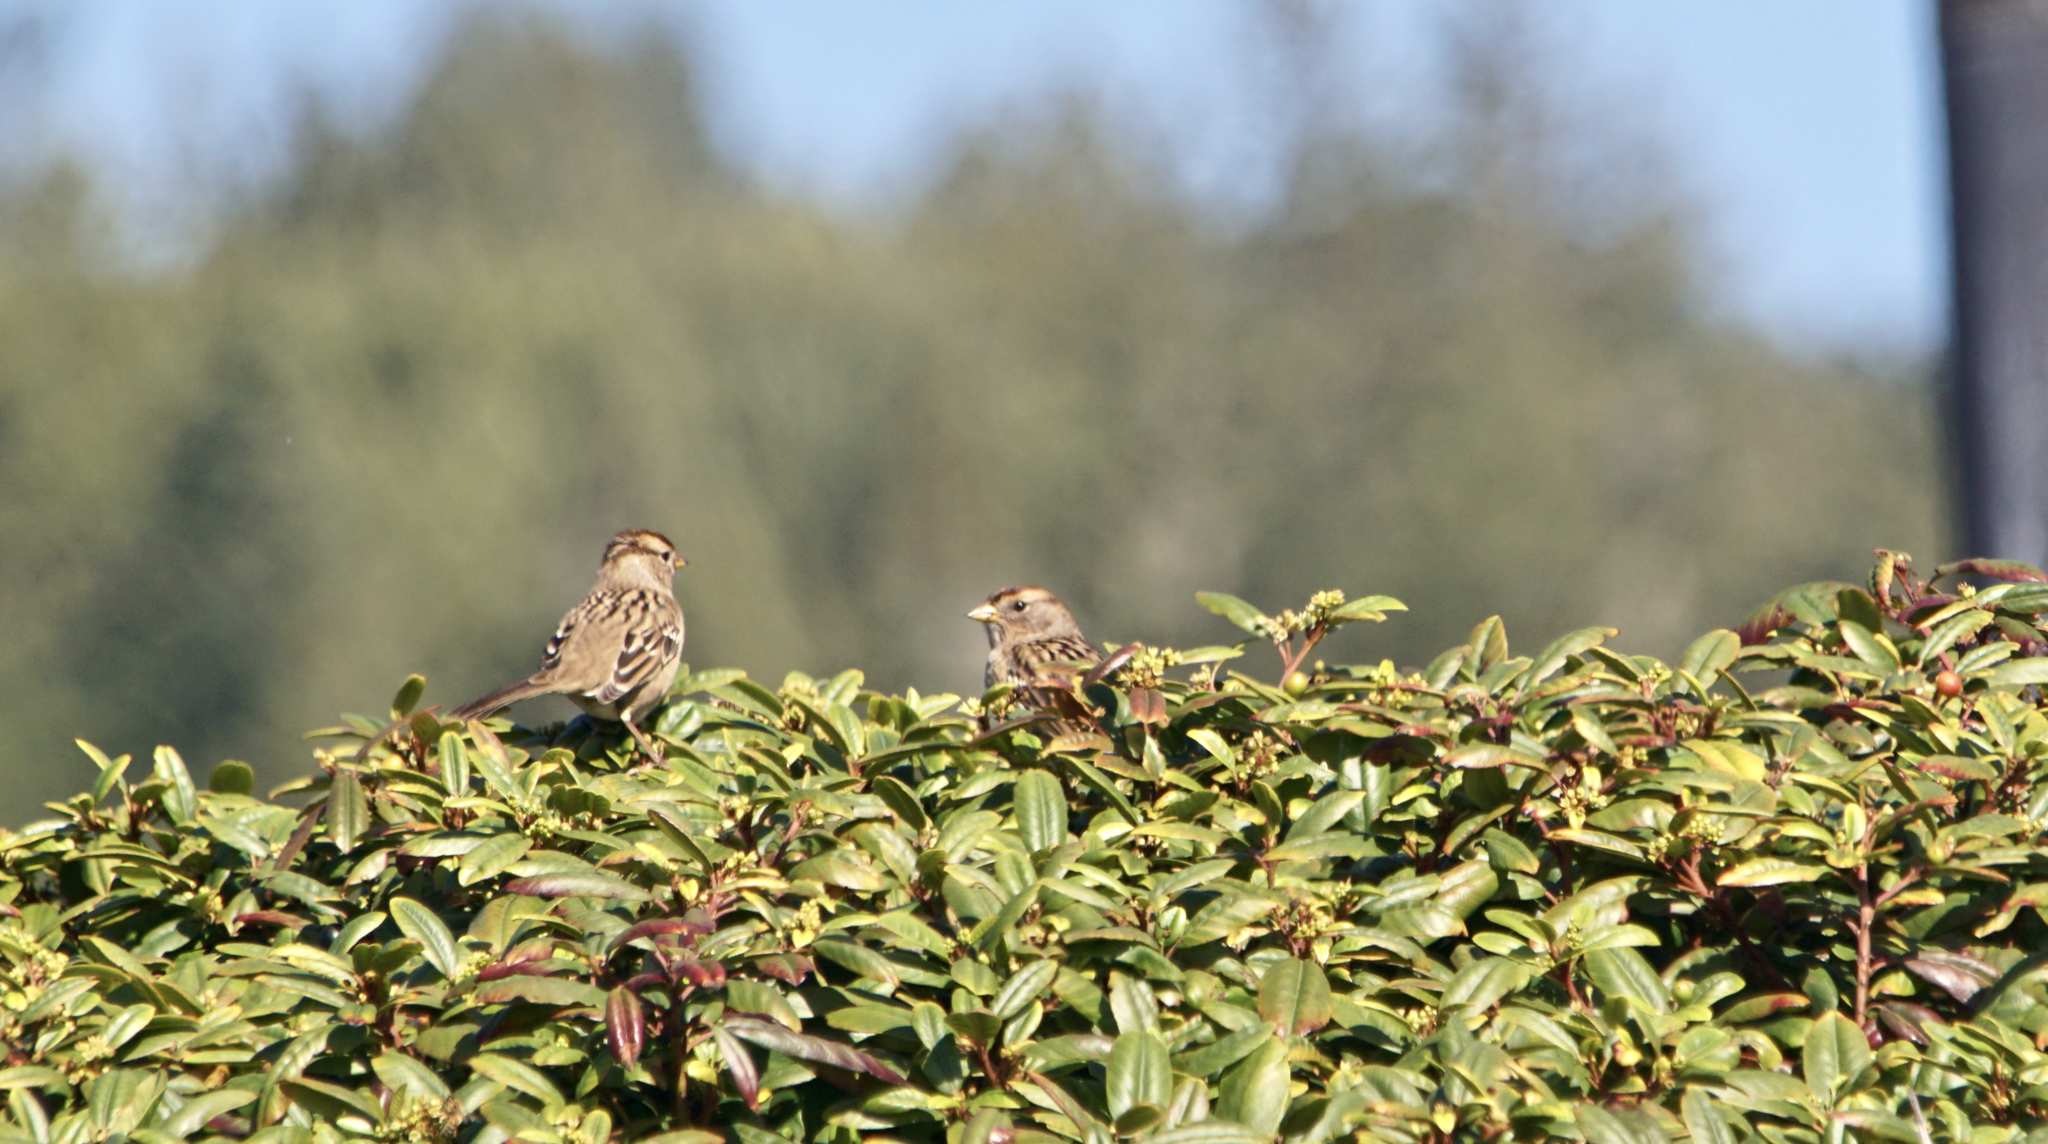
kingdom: Animalia
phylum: Chordata
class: Aves
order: Passeriformes
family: Passerellidae
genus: Zonotrichia
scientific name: Zonotrichia leucophrys
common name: White-crowned sparrow
